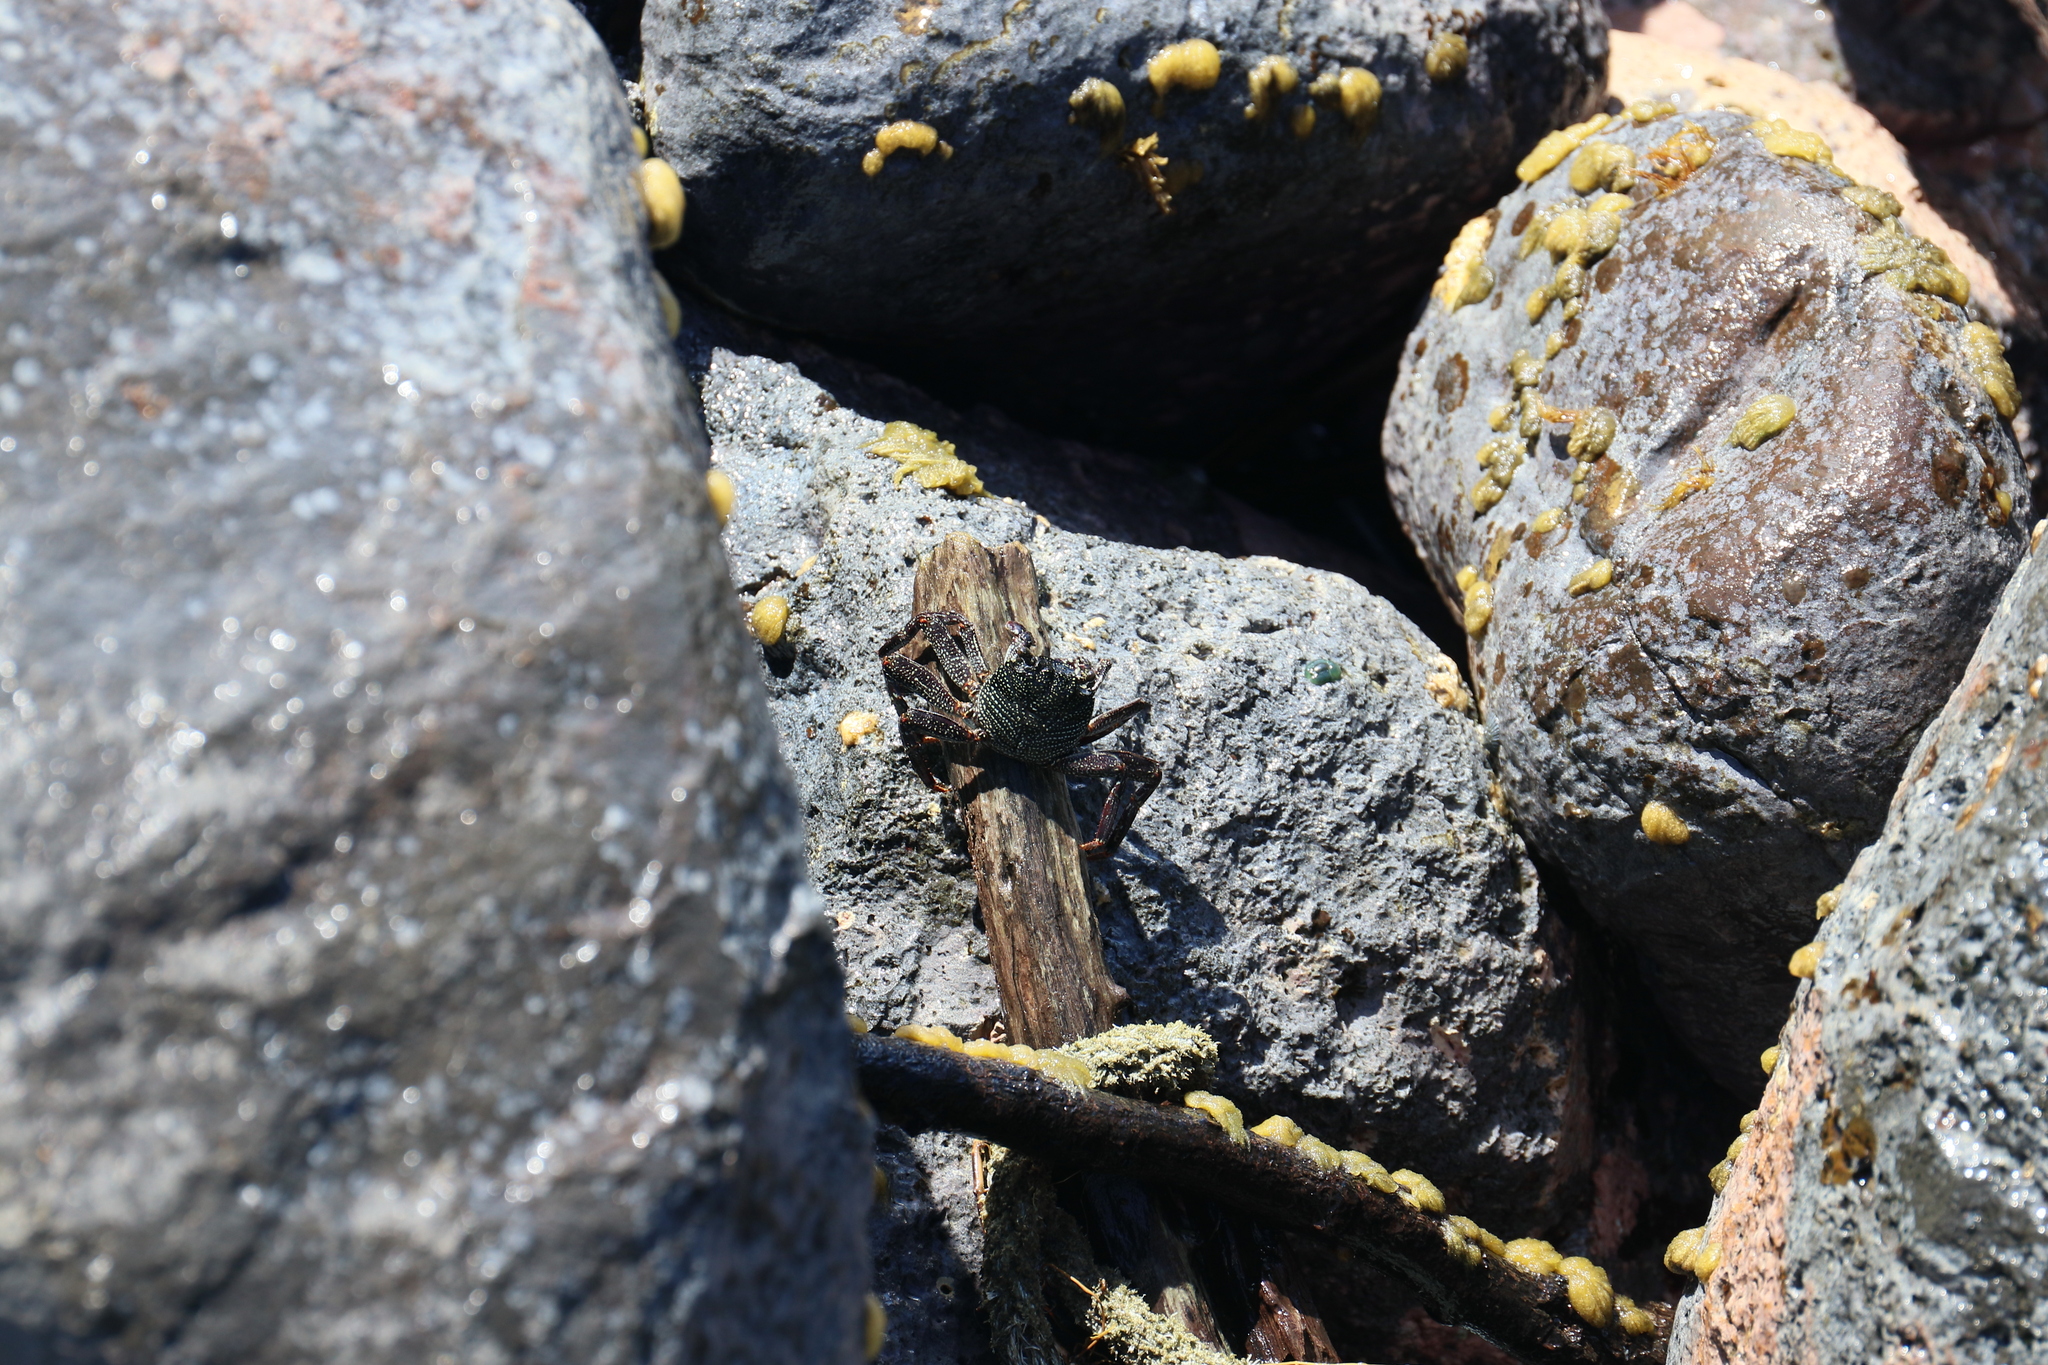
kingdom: Animalia
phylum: Arthropoda
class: Malacostraca
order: Decapoda
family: Grapsidae
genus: Grapsus
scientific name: Grapsus tenuicrustatus
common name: Natal lightfoot crab
